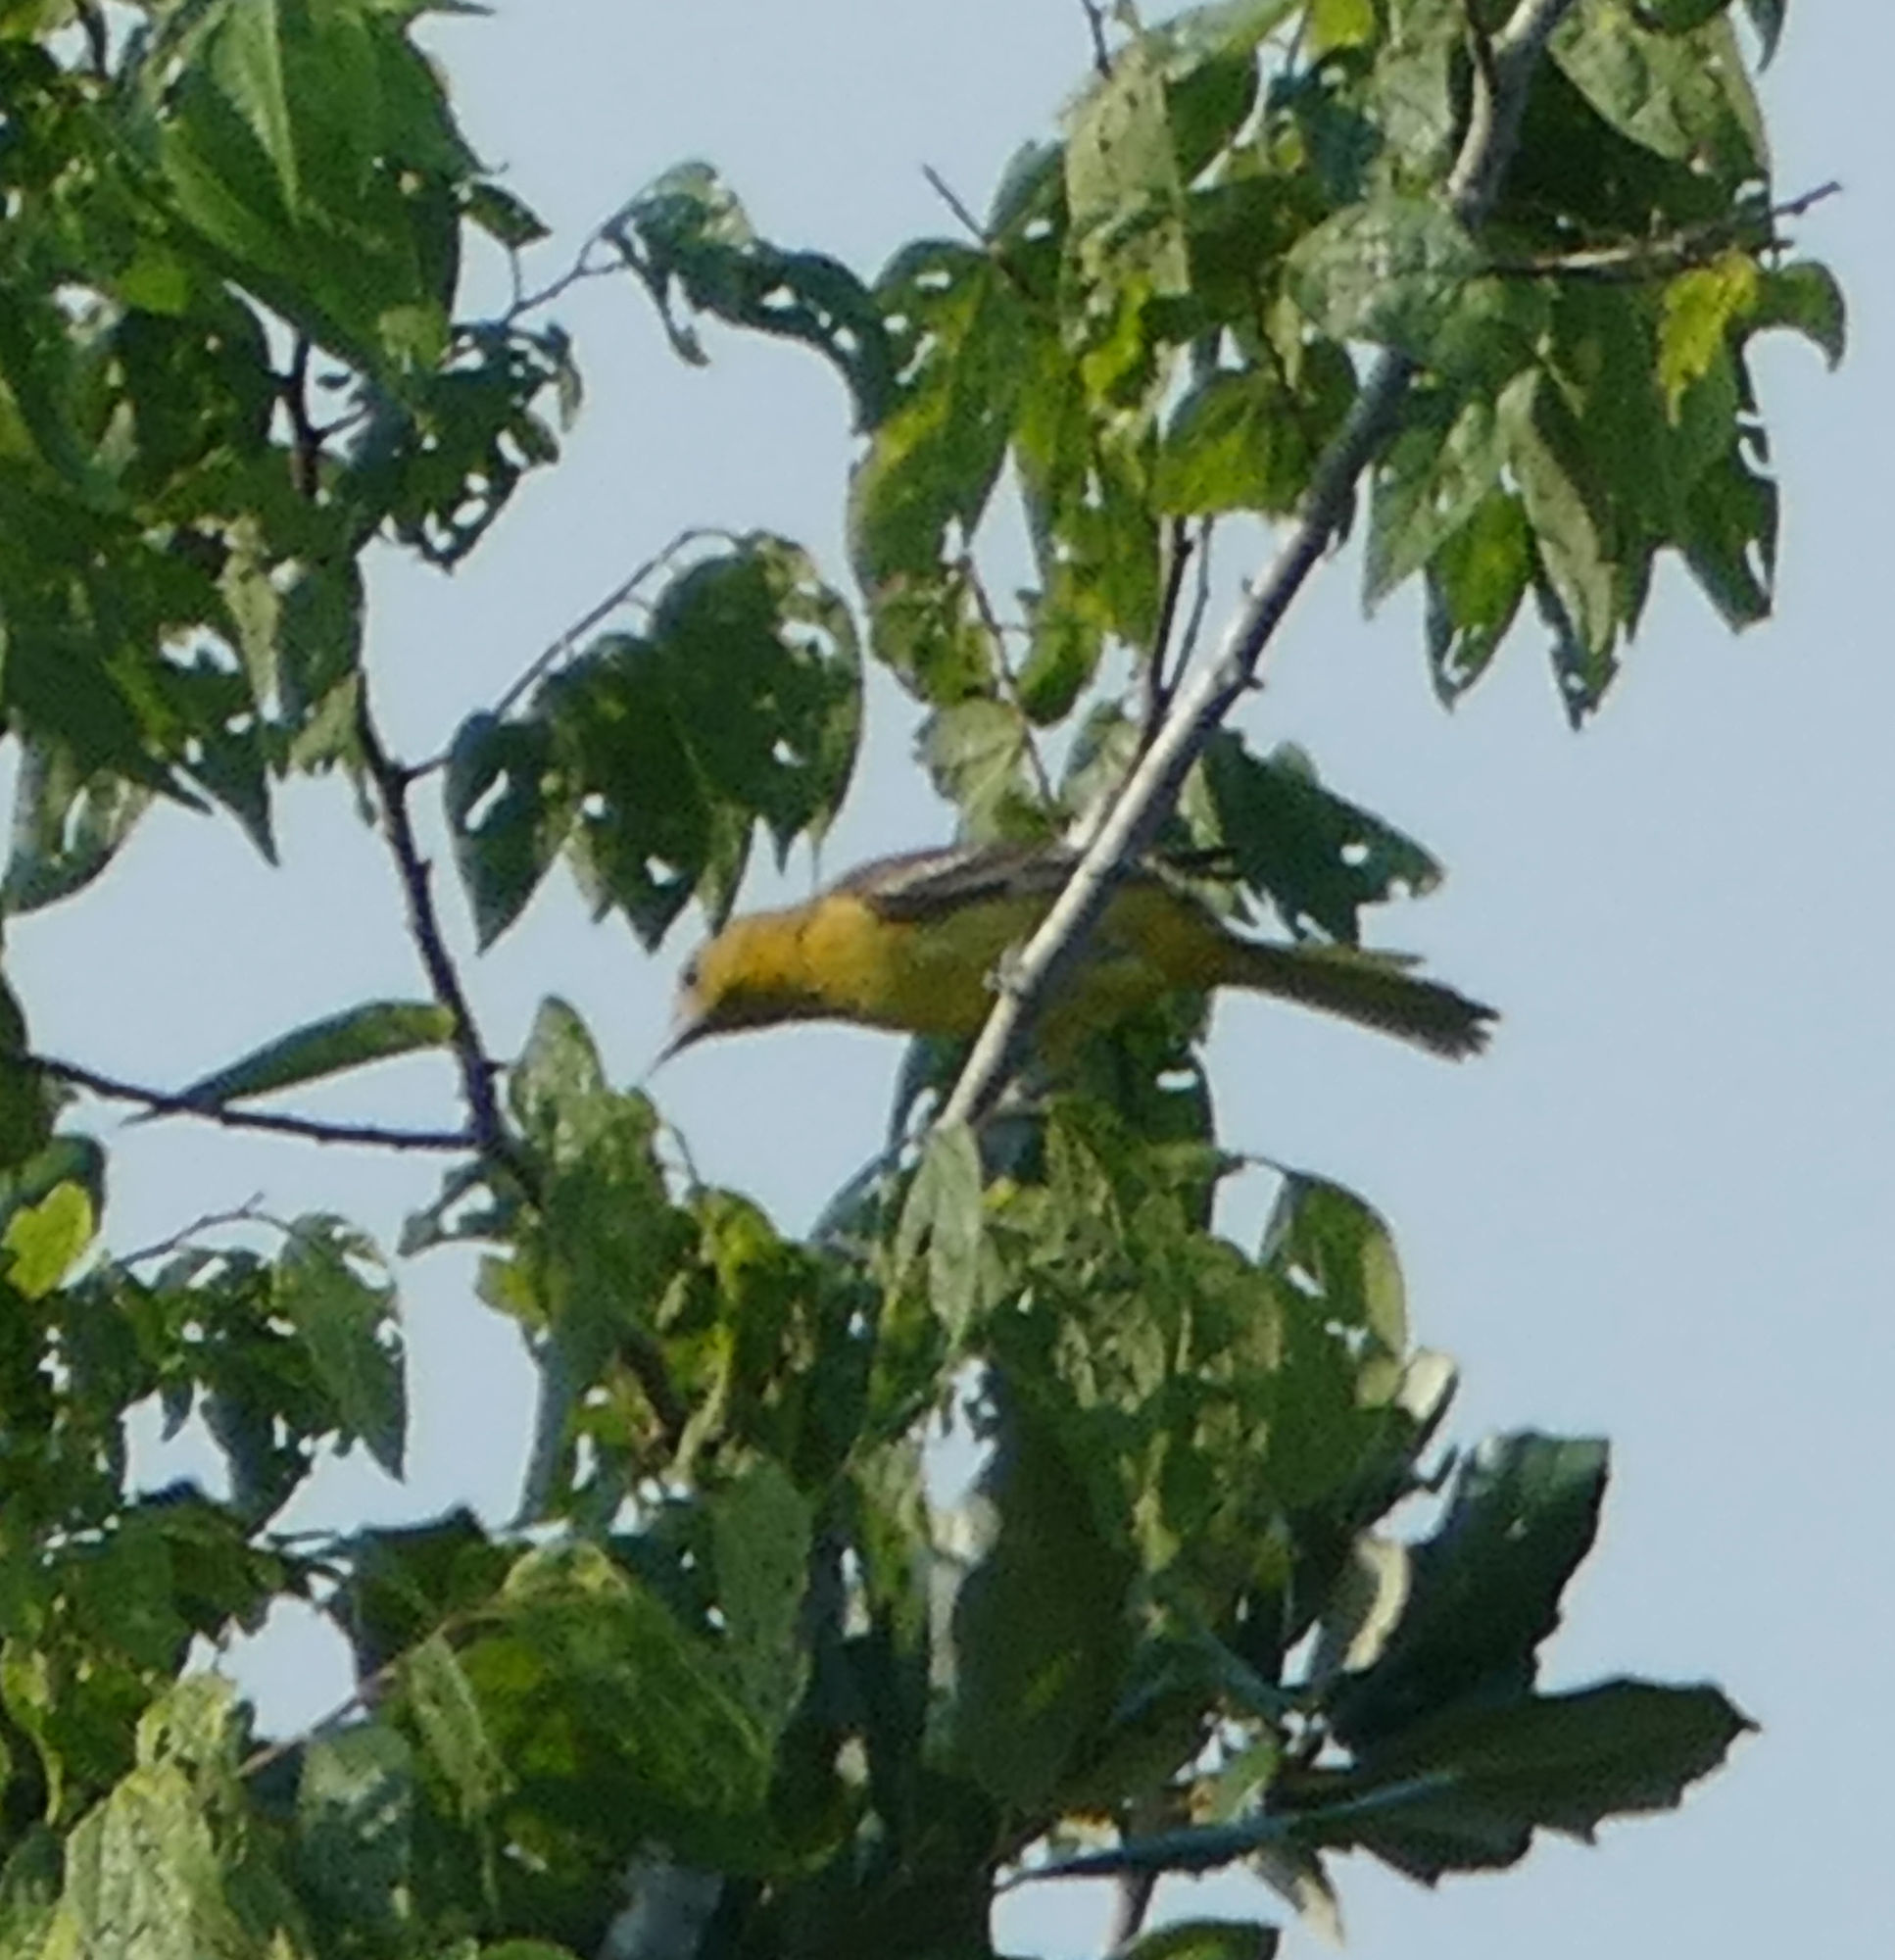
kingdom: Animalia
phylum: Chordata
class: Aves
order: Passeriformes
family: Icteridae
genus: Icterus
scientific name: Icterus spurius
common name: Orchard oriole
